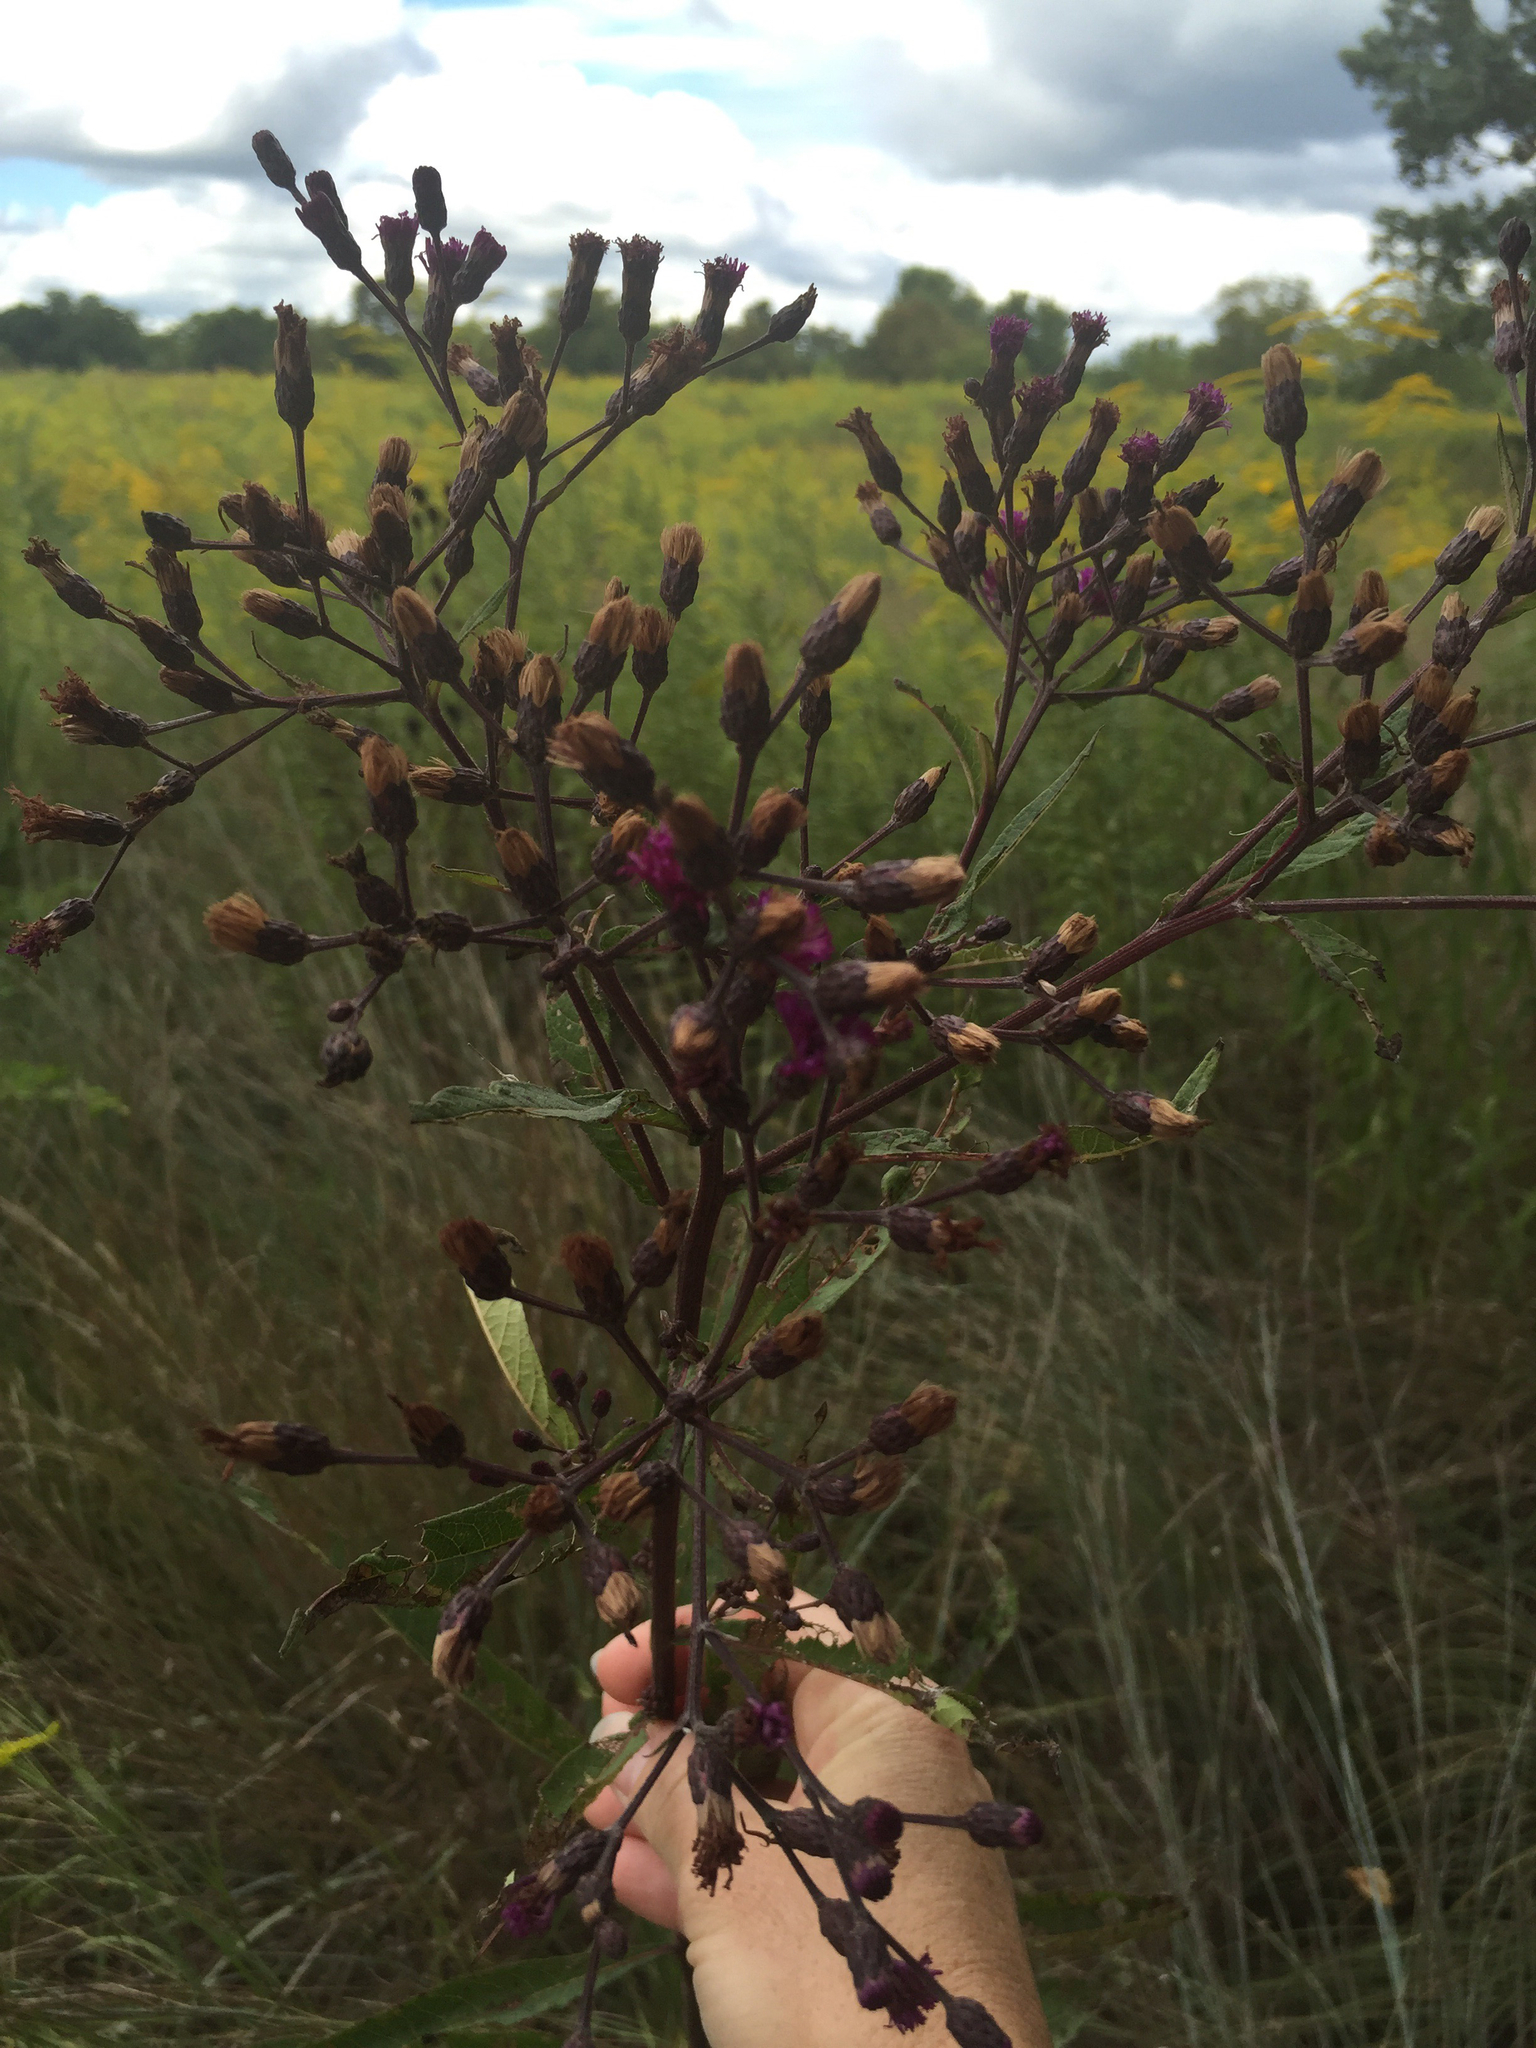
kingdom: Plantae
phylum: Tracheophyta
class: Magnoliopsida
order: Asterales
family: Asteraceae
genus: Vernonia
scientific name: Vernonia gigantea
